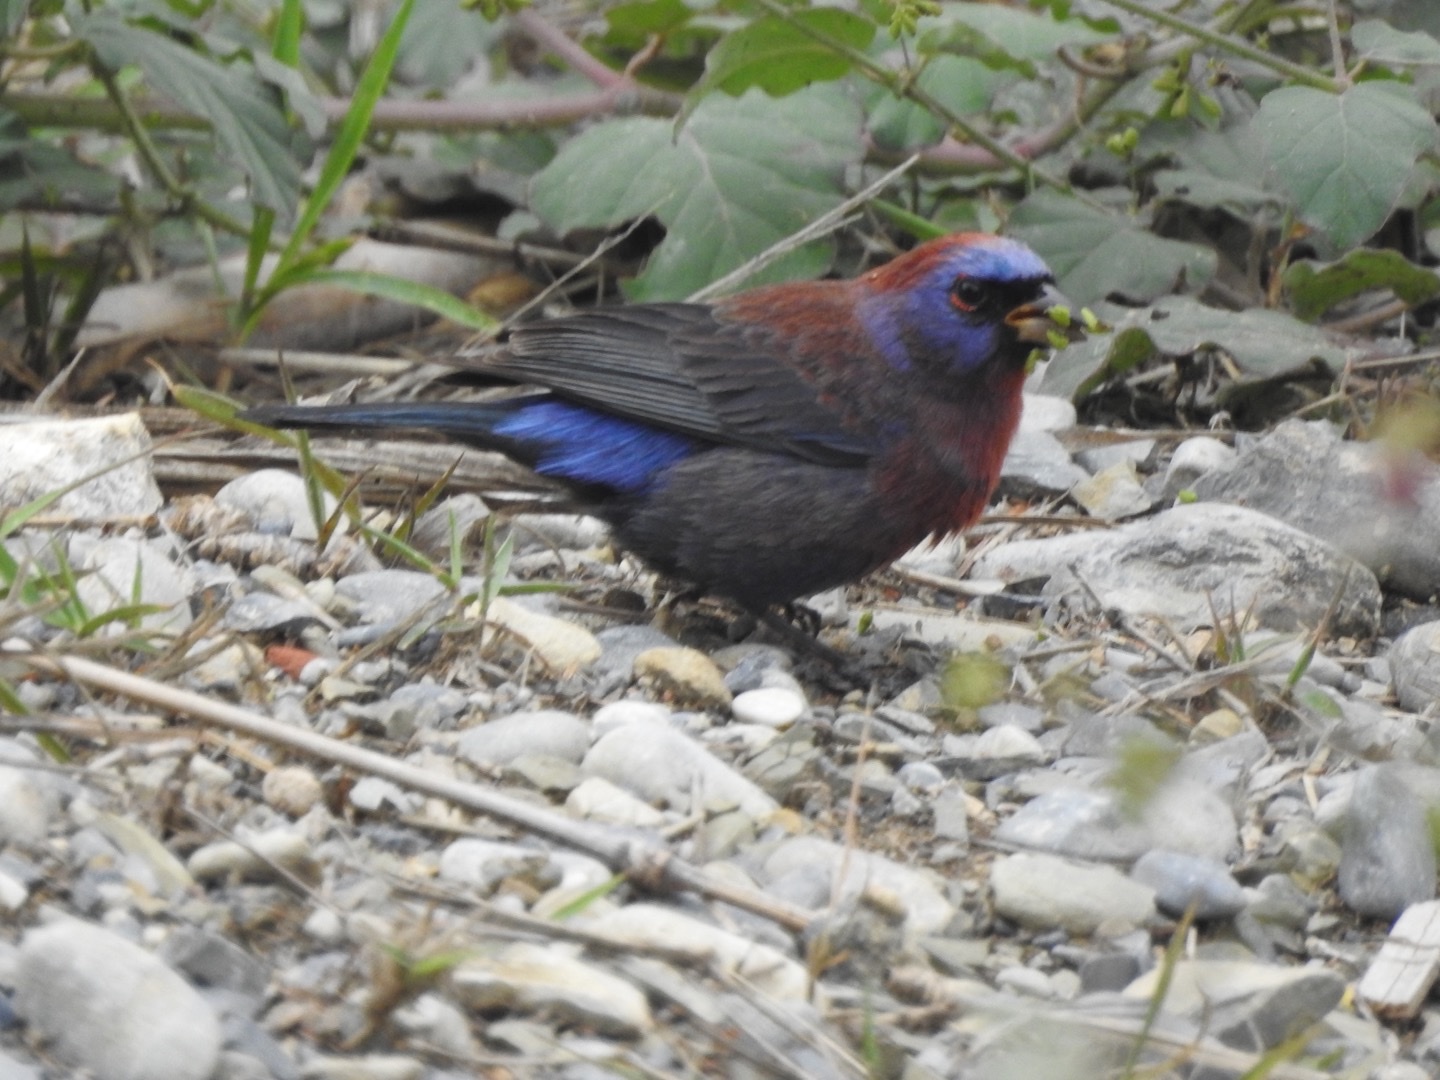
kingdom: Animalia
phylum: Chordata
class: Aves
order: Passeriformes
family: Cardinalidae
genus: Passerina
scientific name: Passerina versicolor
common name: Varied bunting
